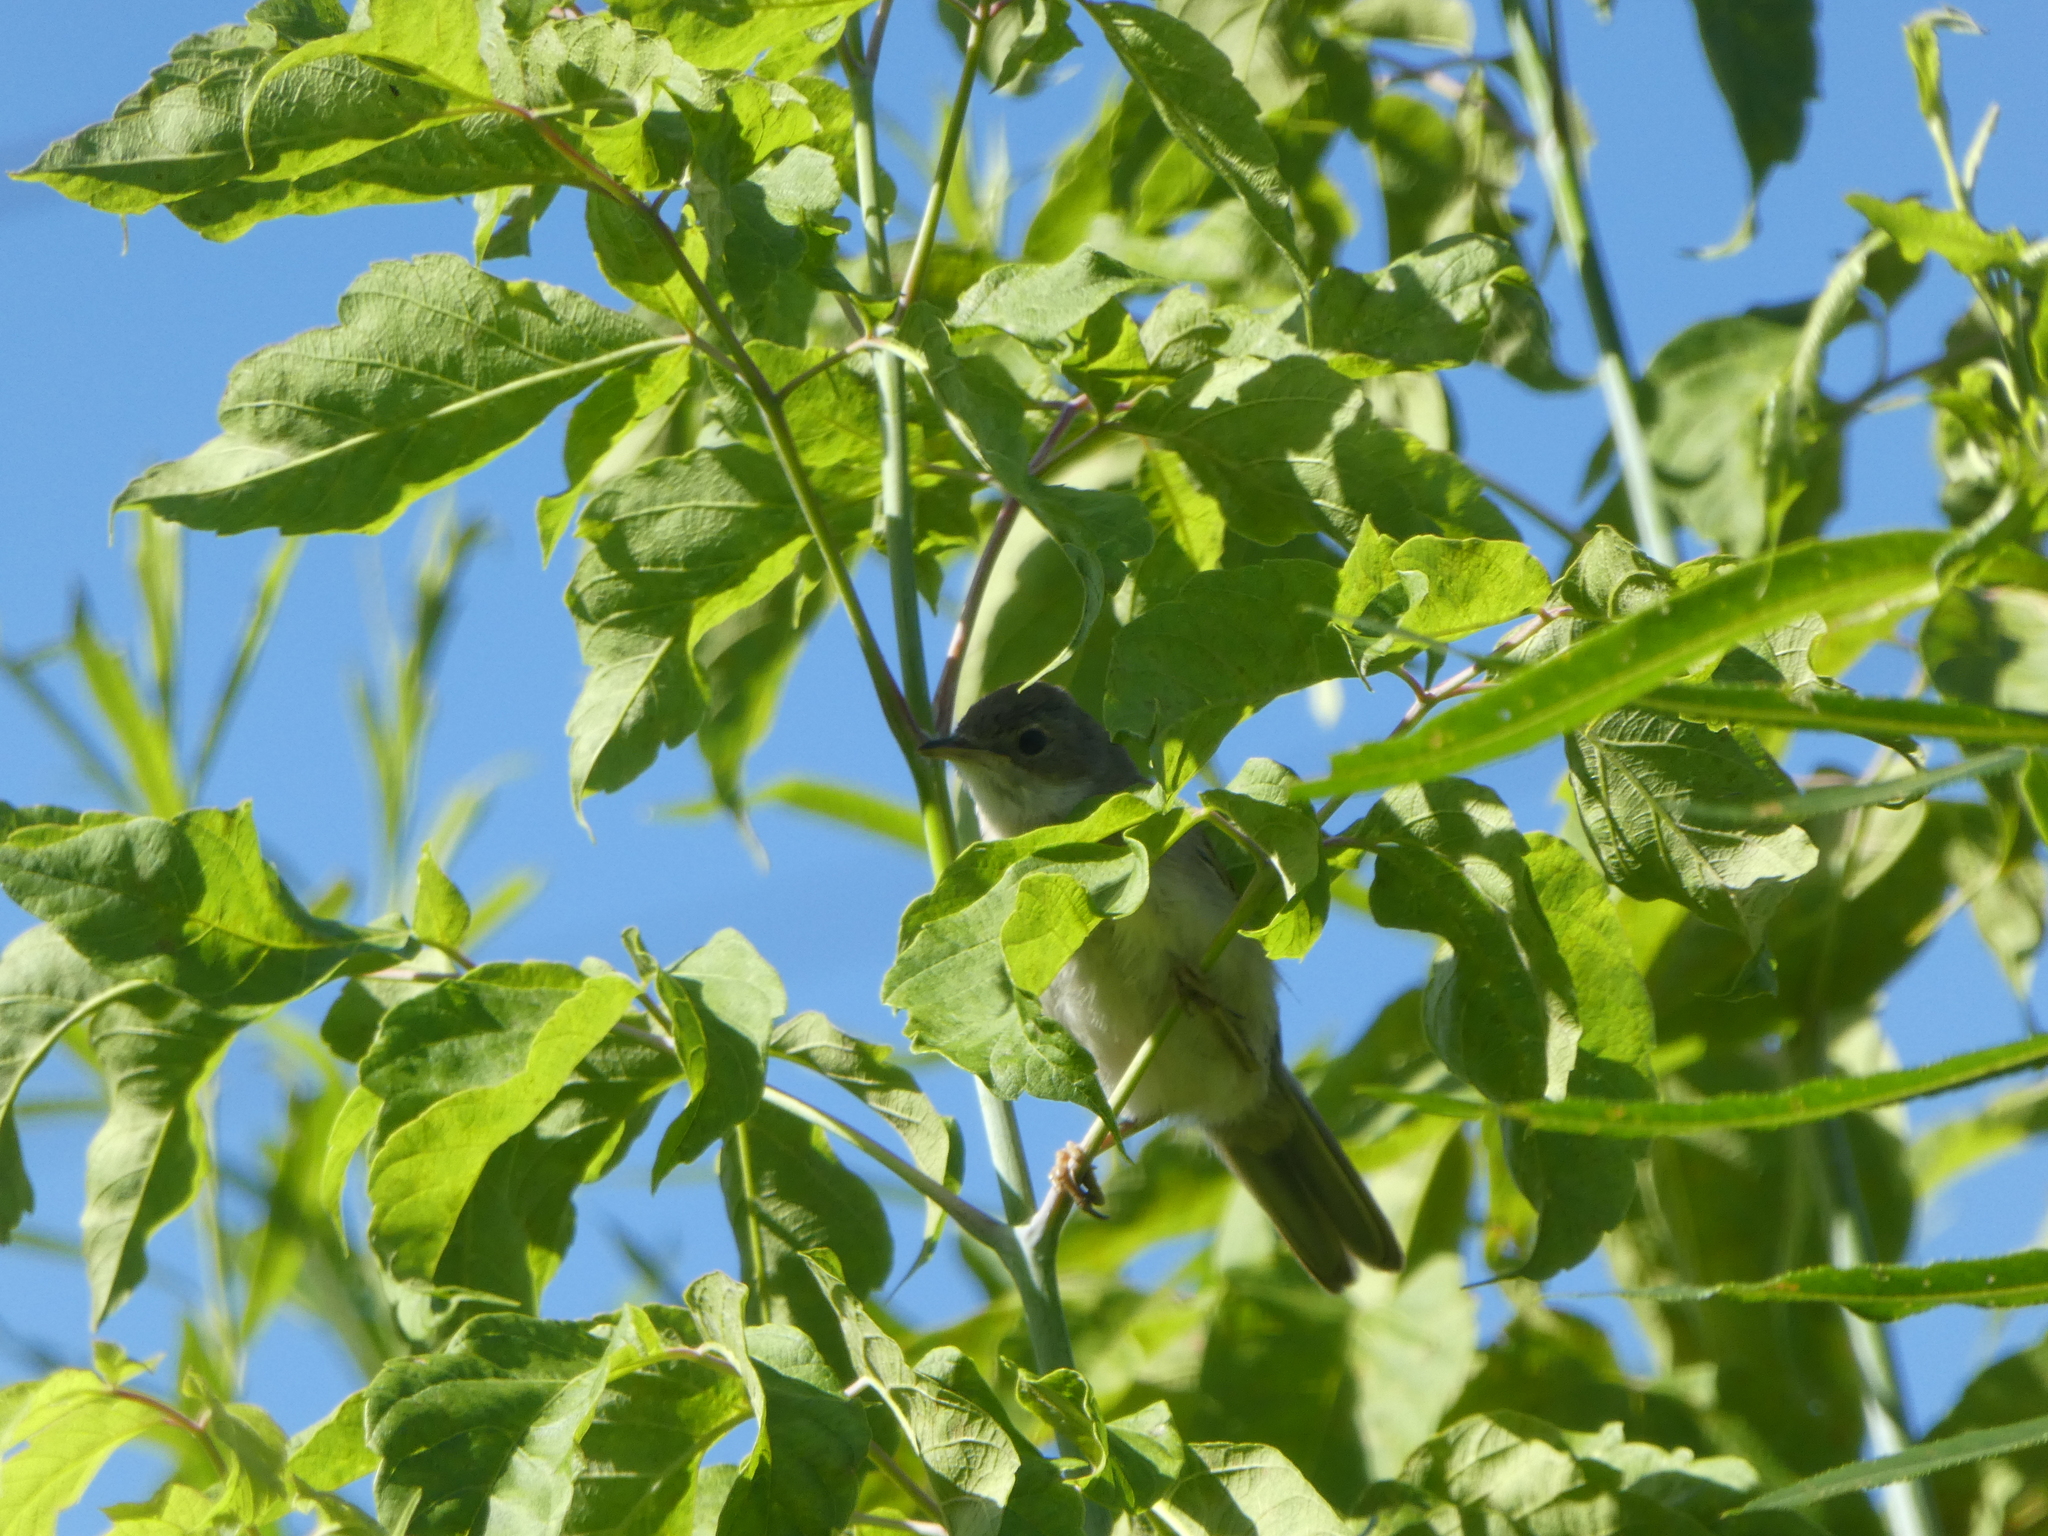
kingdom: Animalia
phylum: Chordata
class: Aves
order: Passeriformes
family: Sylviidae
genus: Sylvia
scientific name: Sylvia communis
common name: Common whitethroat
